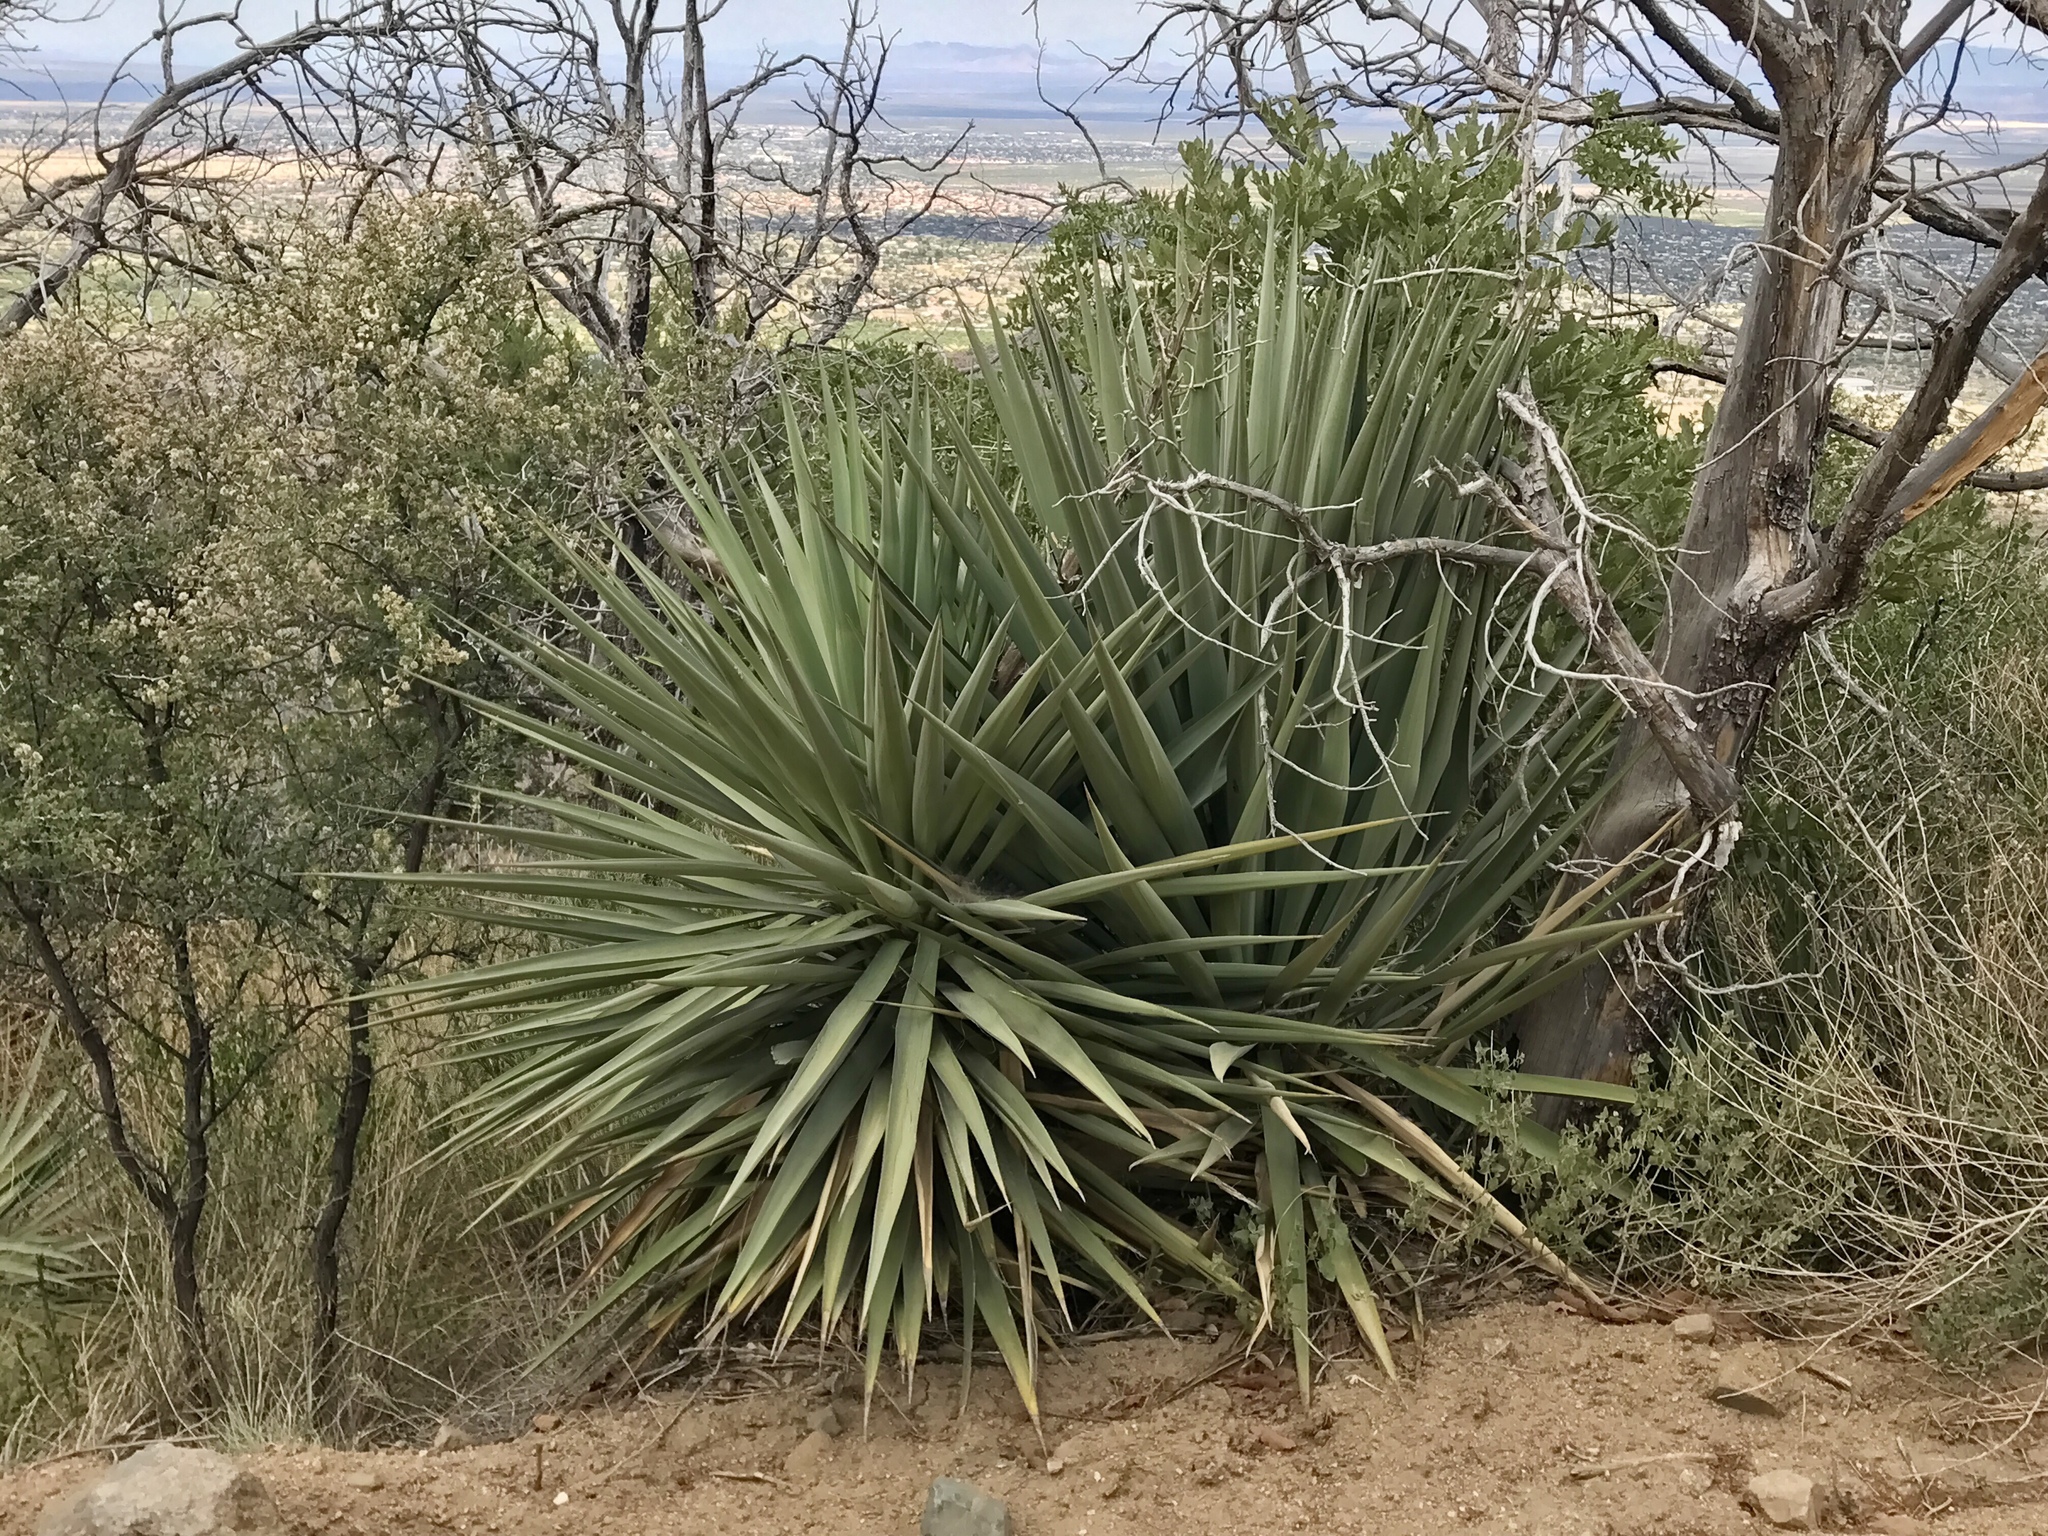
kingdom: Plantae
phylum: Tracheophyta
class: Liliopsida
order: Asparagales
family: Asparagaceae
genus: Yucca
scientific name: Yucca schottii
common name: Hoary yucca
